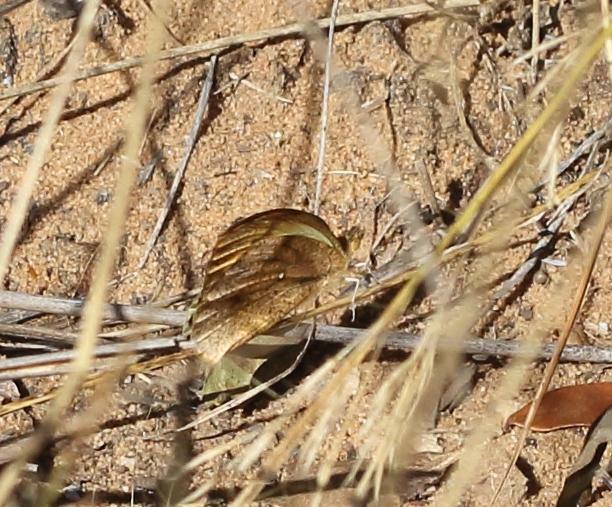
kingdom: Animalia
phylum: Arthropoda
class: Insecta
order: Lepidoptera
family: Pieridae
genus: Colotis
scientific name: Colotis auxo
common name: Sulphur orange tip
